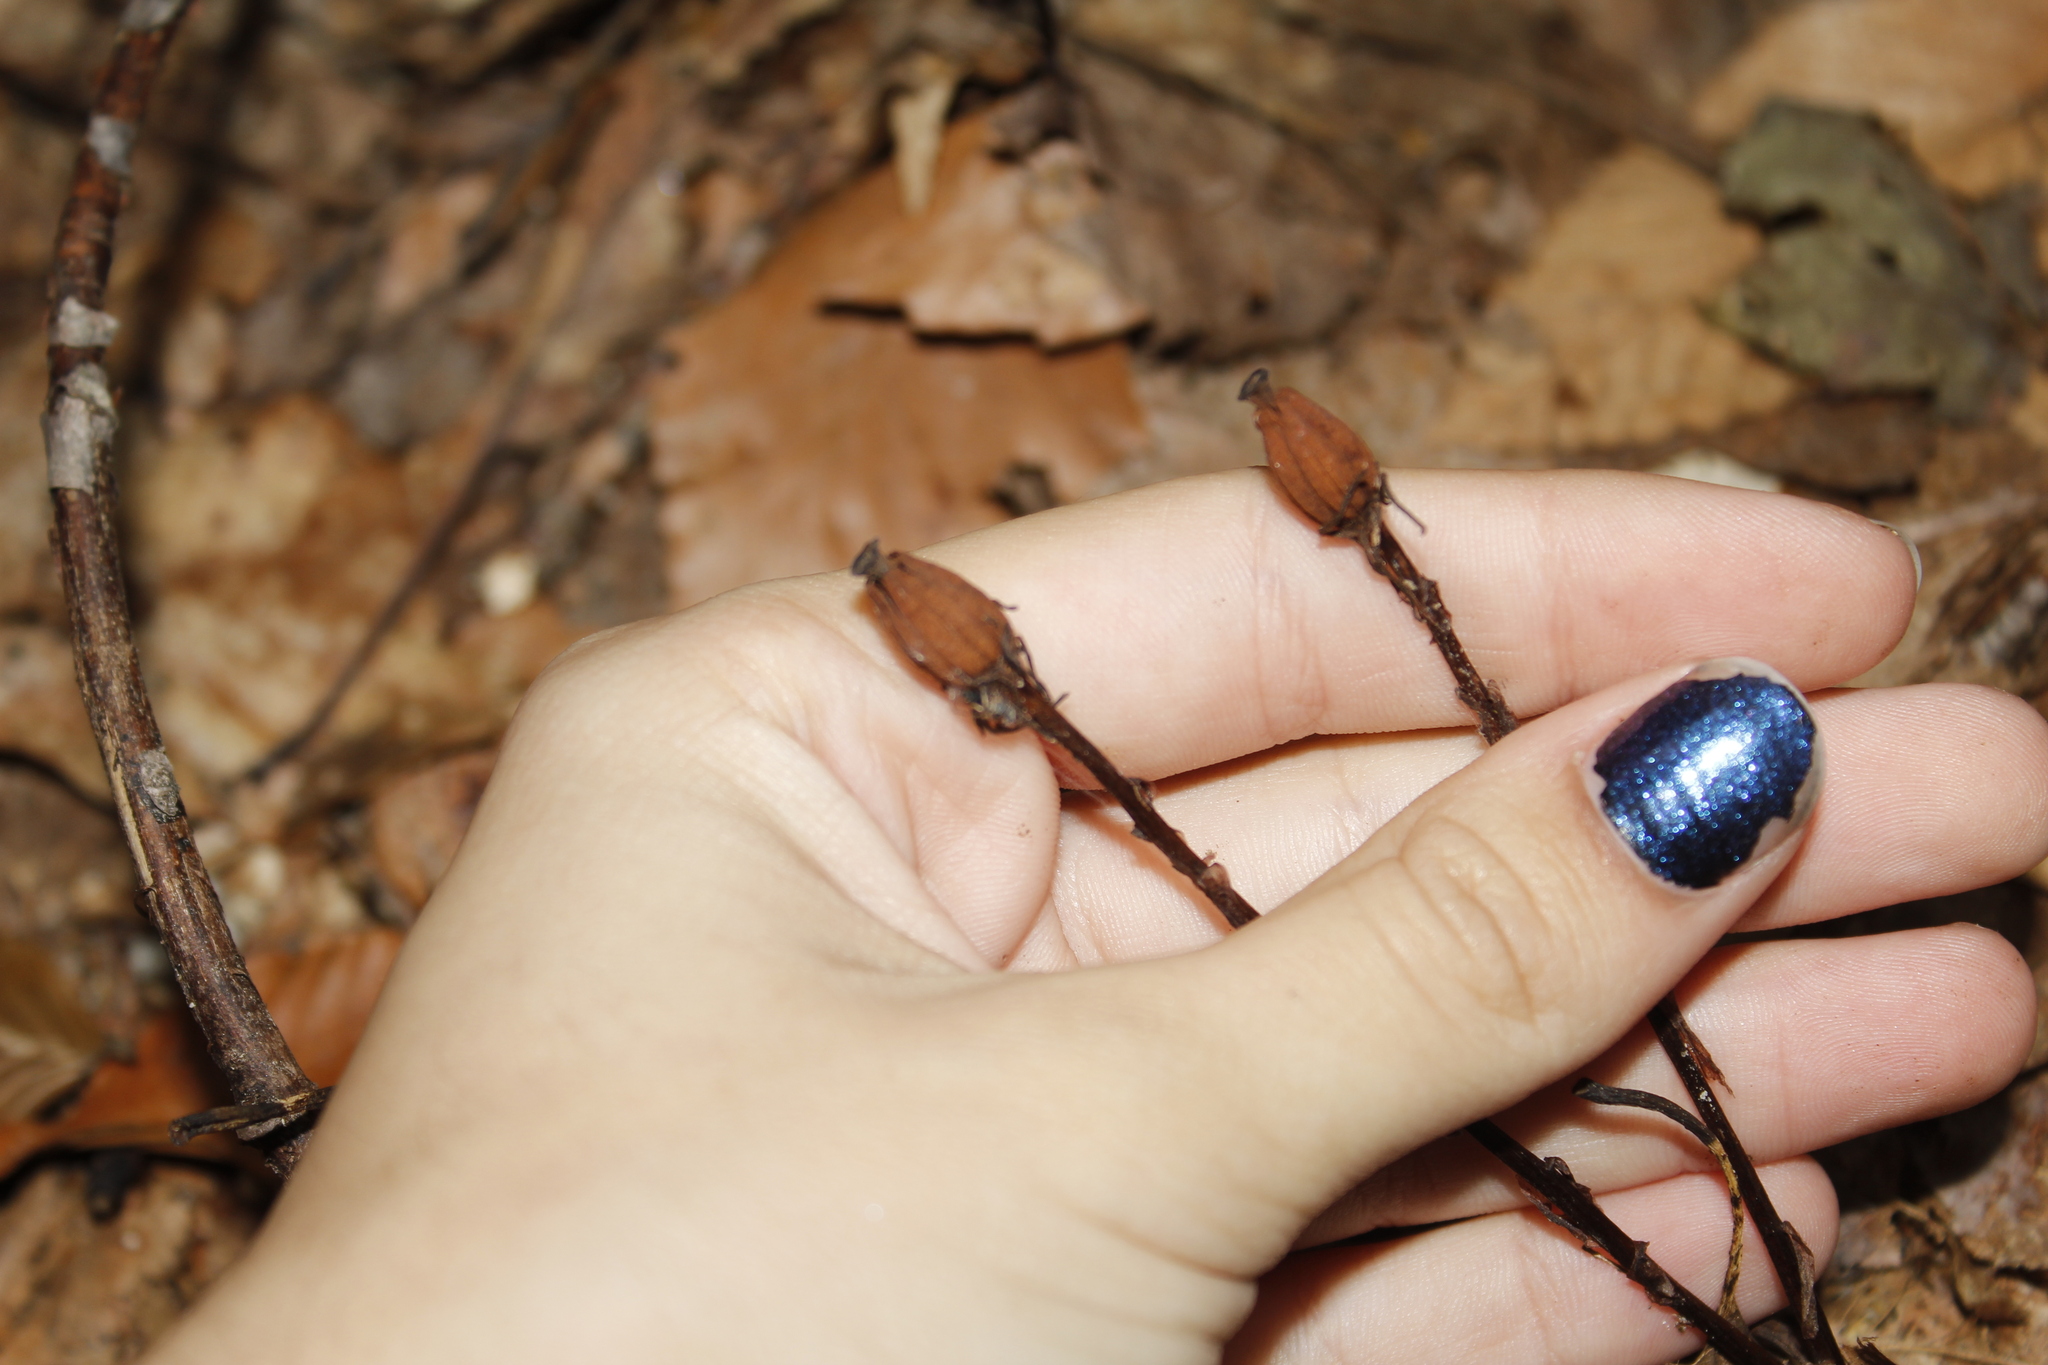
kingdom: Plantae
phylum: Tracheophyta
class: Magnoliopsida
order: Ericales
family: Ericaceae
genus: Monotropa
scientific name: Monotropa uniflora
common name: Convulsion root
